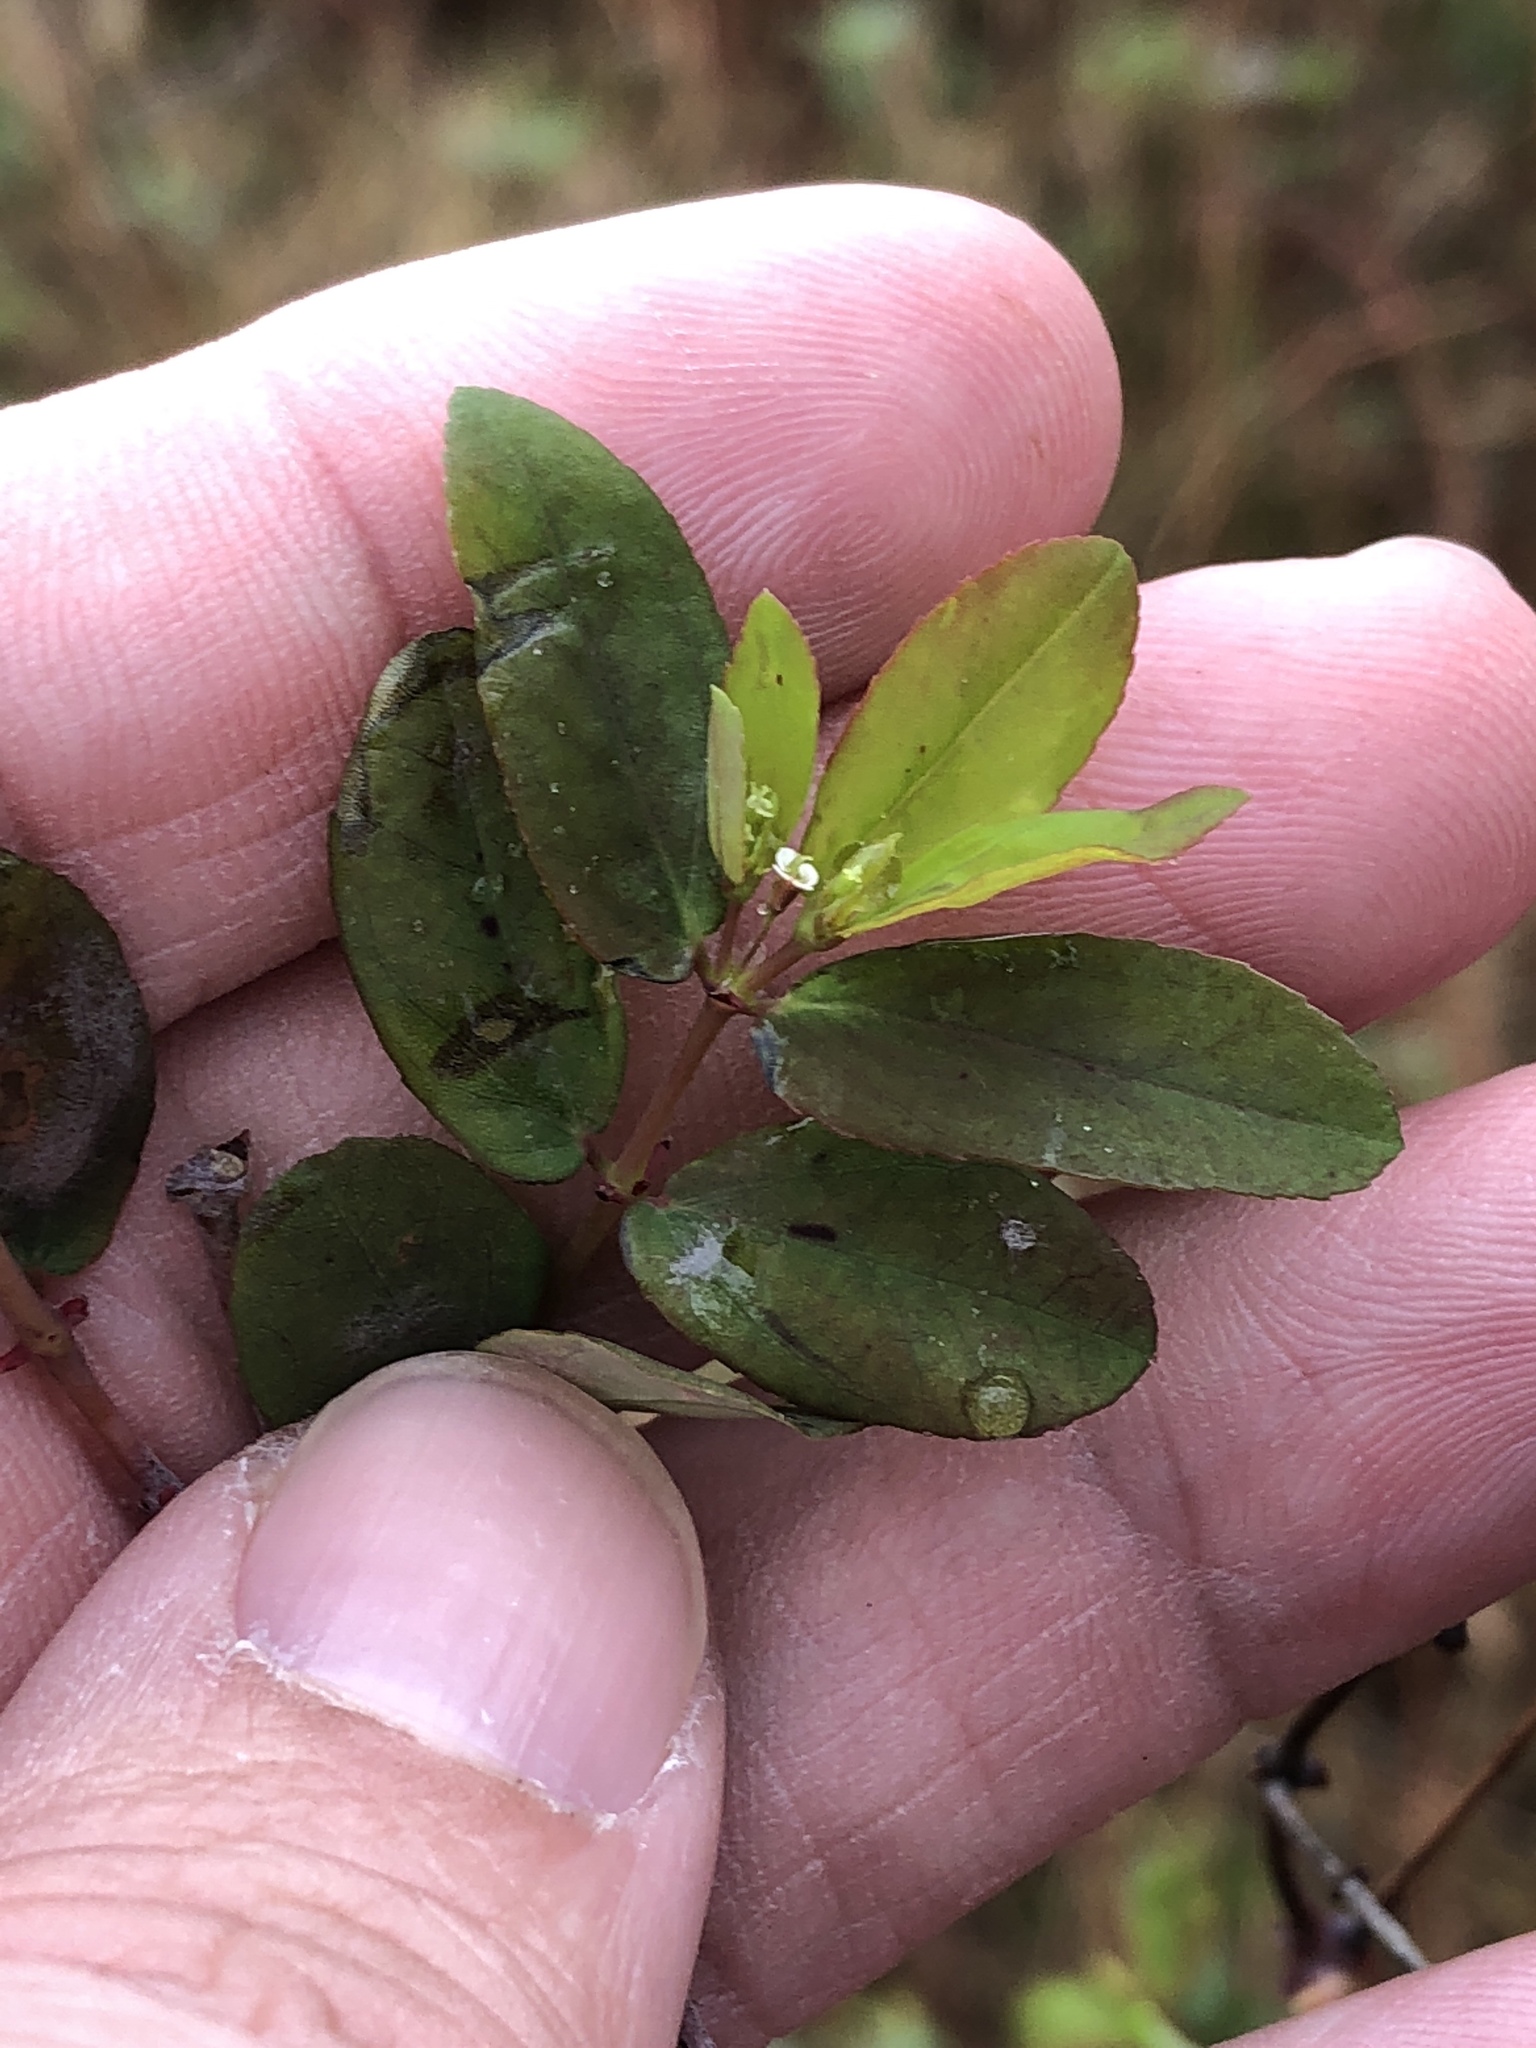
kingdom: Plantae
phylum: Tracheophyta
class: Magnoliopsida
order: Malpighiales
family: Euphorbiaceae
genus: Euphorbia
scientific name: Euphorbia hypericifolia
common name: Graceful sandmat
